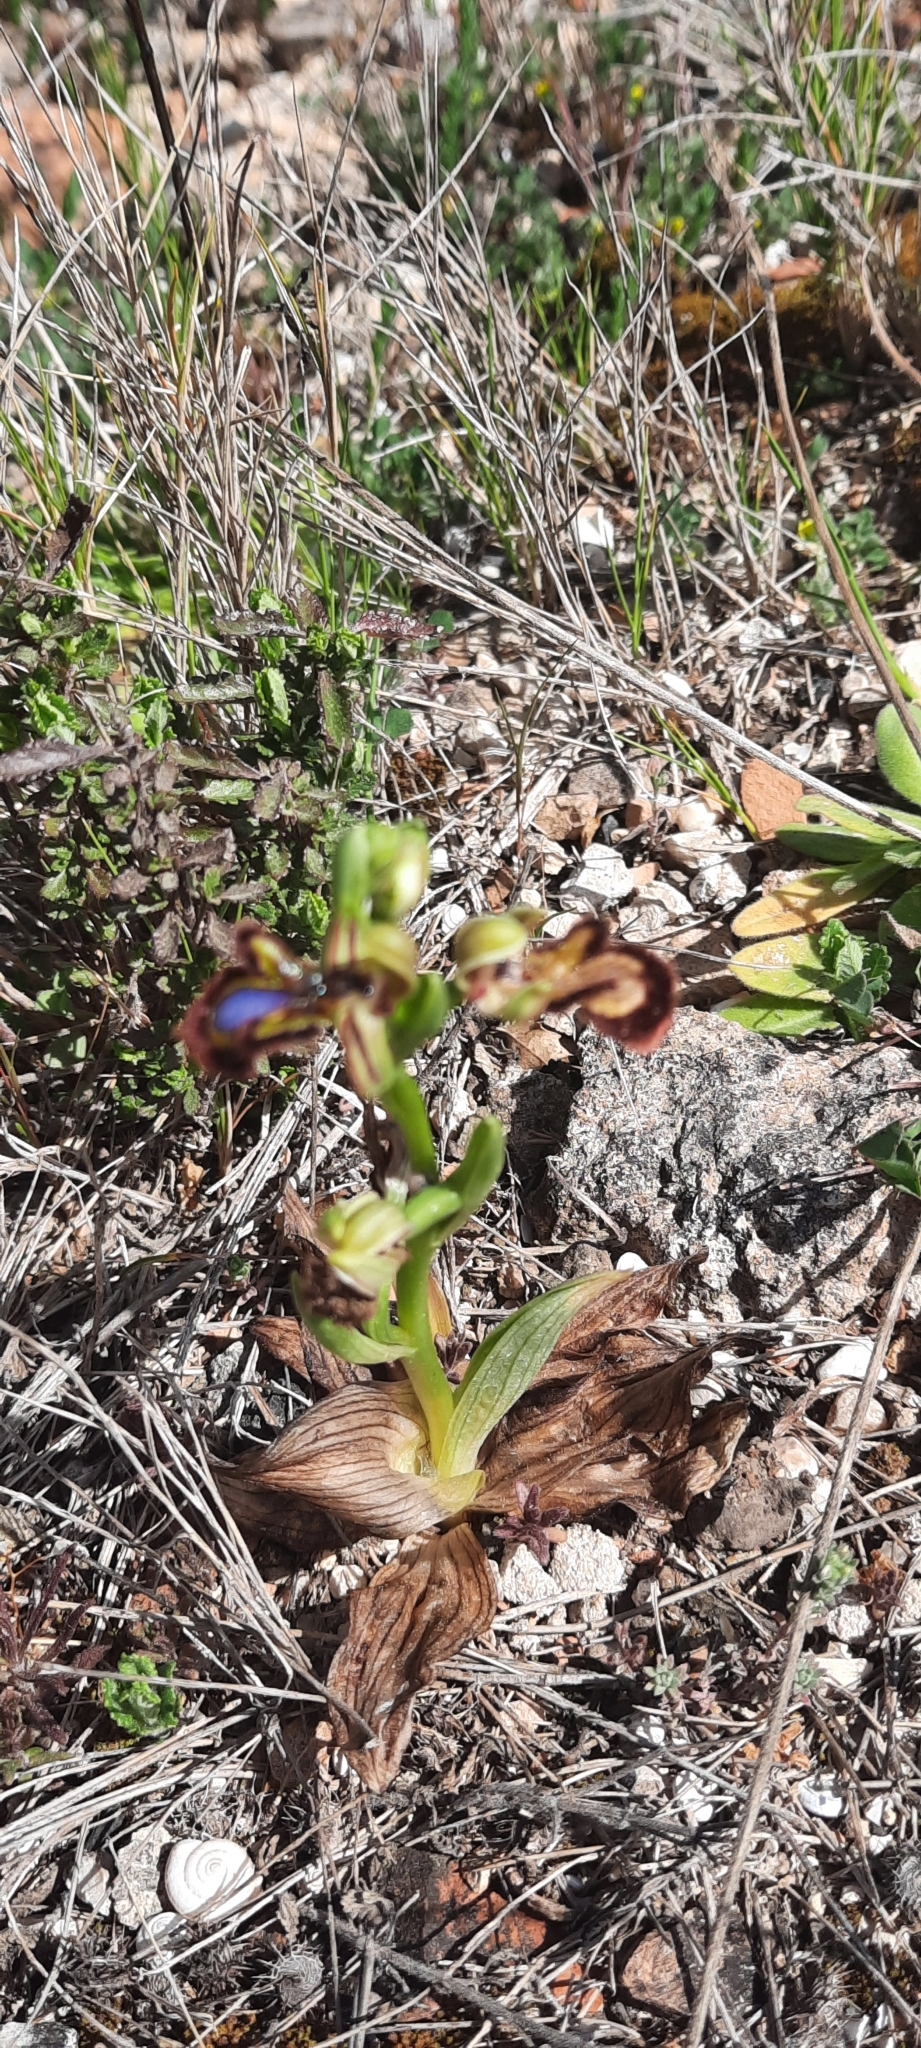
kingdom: Plantae
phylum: Tracheophyta
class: Liliopsida
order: Asparagales
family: Orchidaceae
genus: Ophrys
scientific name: Ophrys speculum
